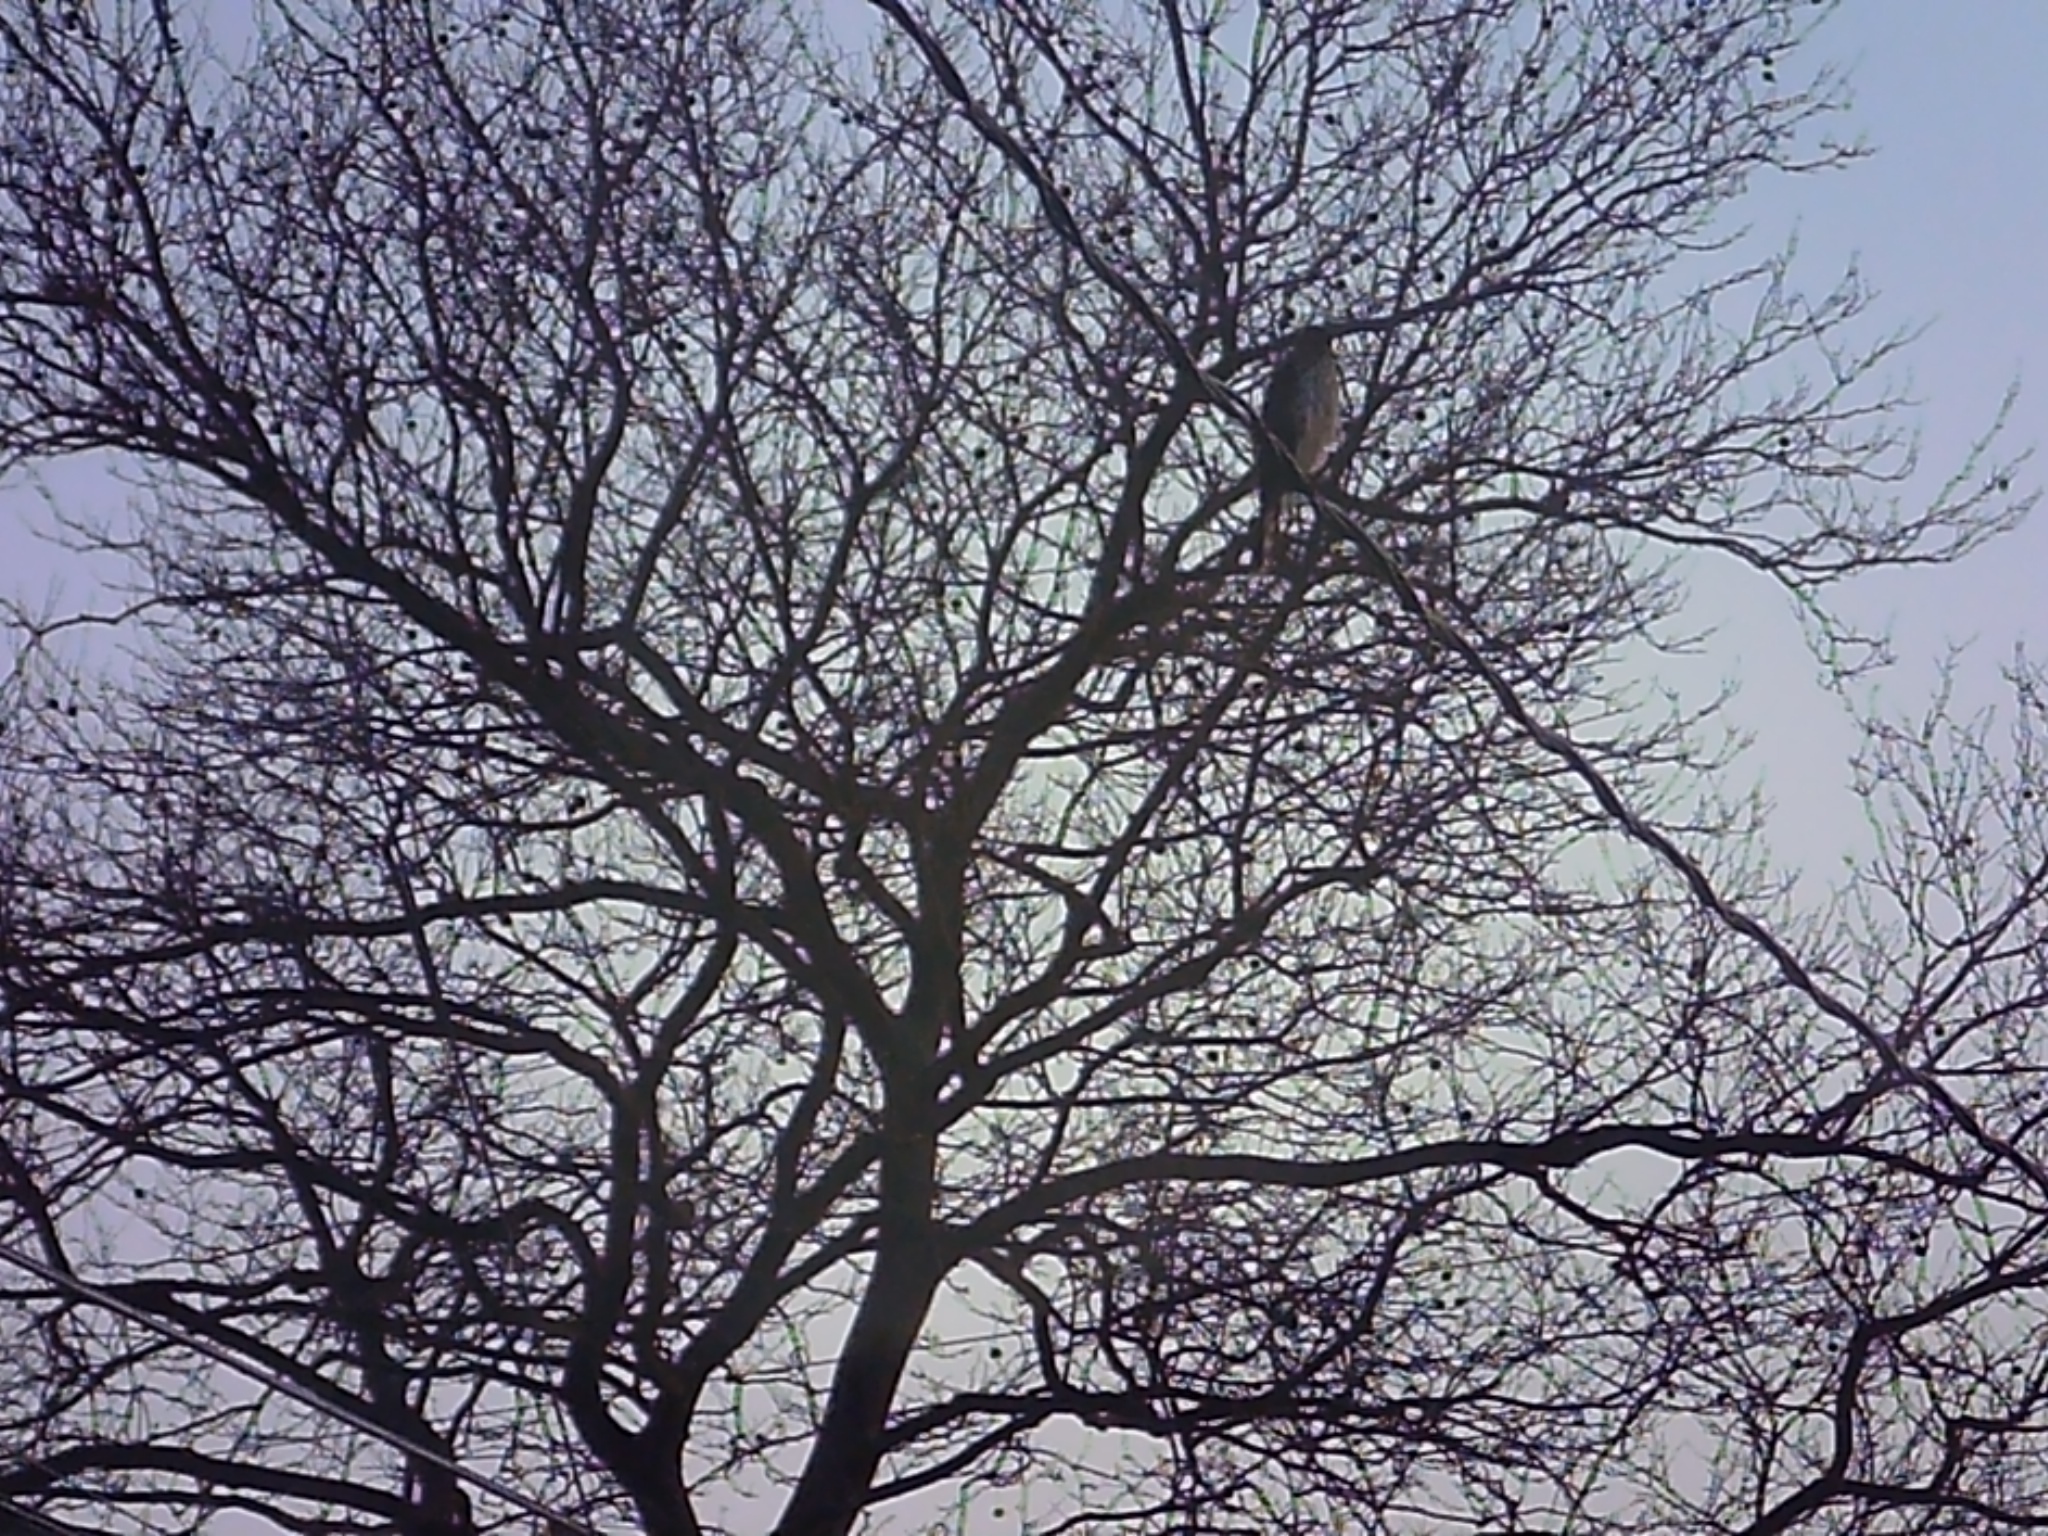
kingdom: Animalia
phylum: Chordata
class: Aves
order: Accipitriformes
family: Accipitridae
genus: Accipiter
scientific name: Accipiter cooperii
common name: Cooper's hawk
